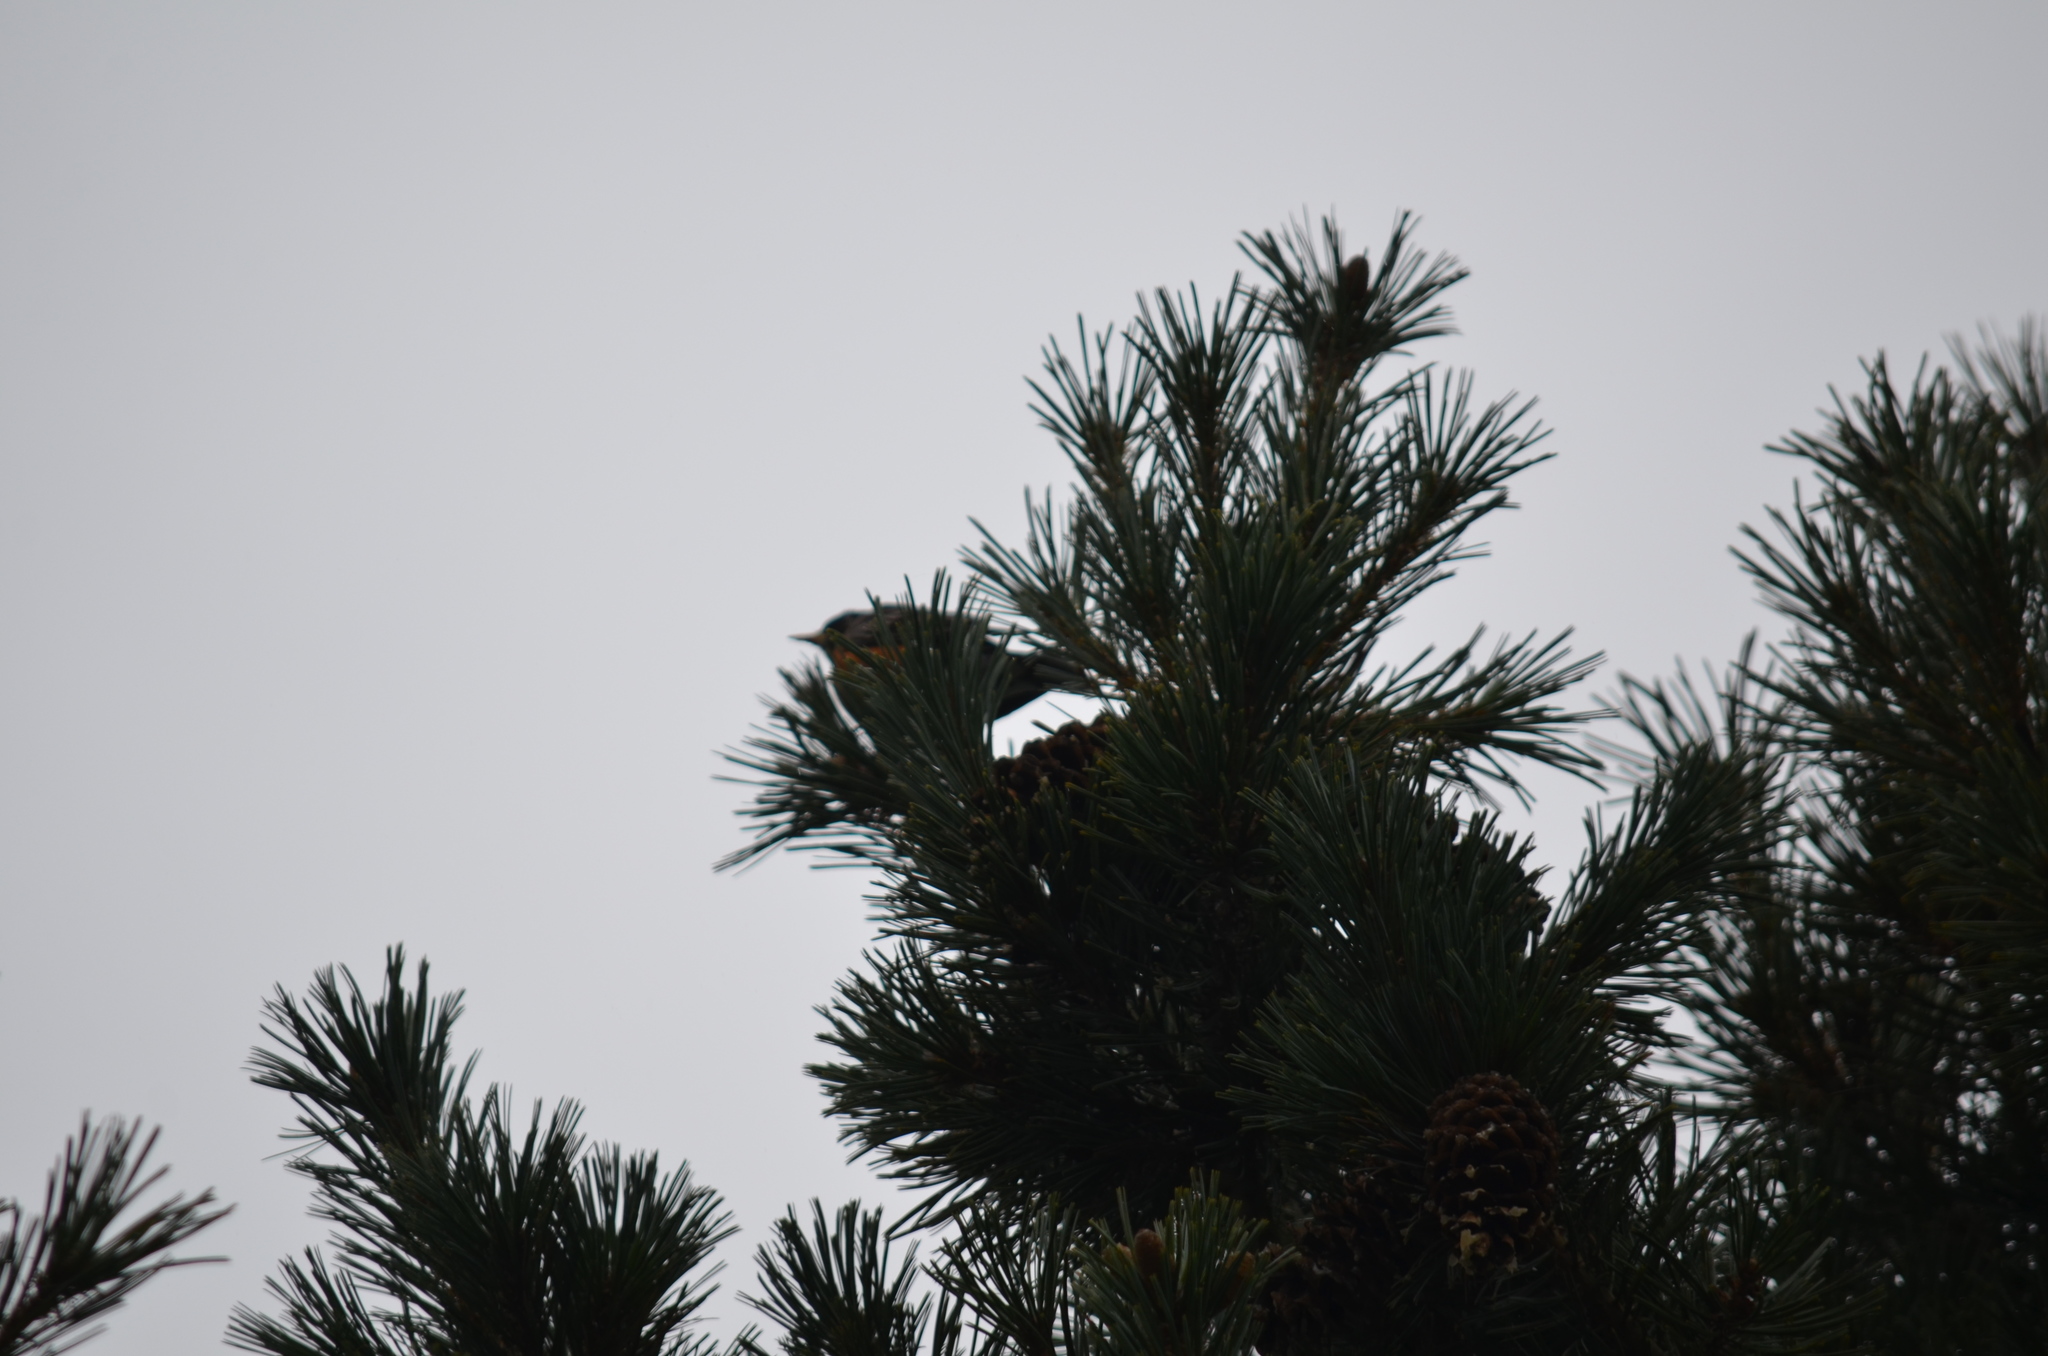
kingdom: Animalia
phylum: Chordata
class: Aves
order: Passeriformes
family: Turdidae
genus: Turdus
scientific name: Turdus migratorius
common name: American robin
